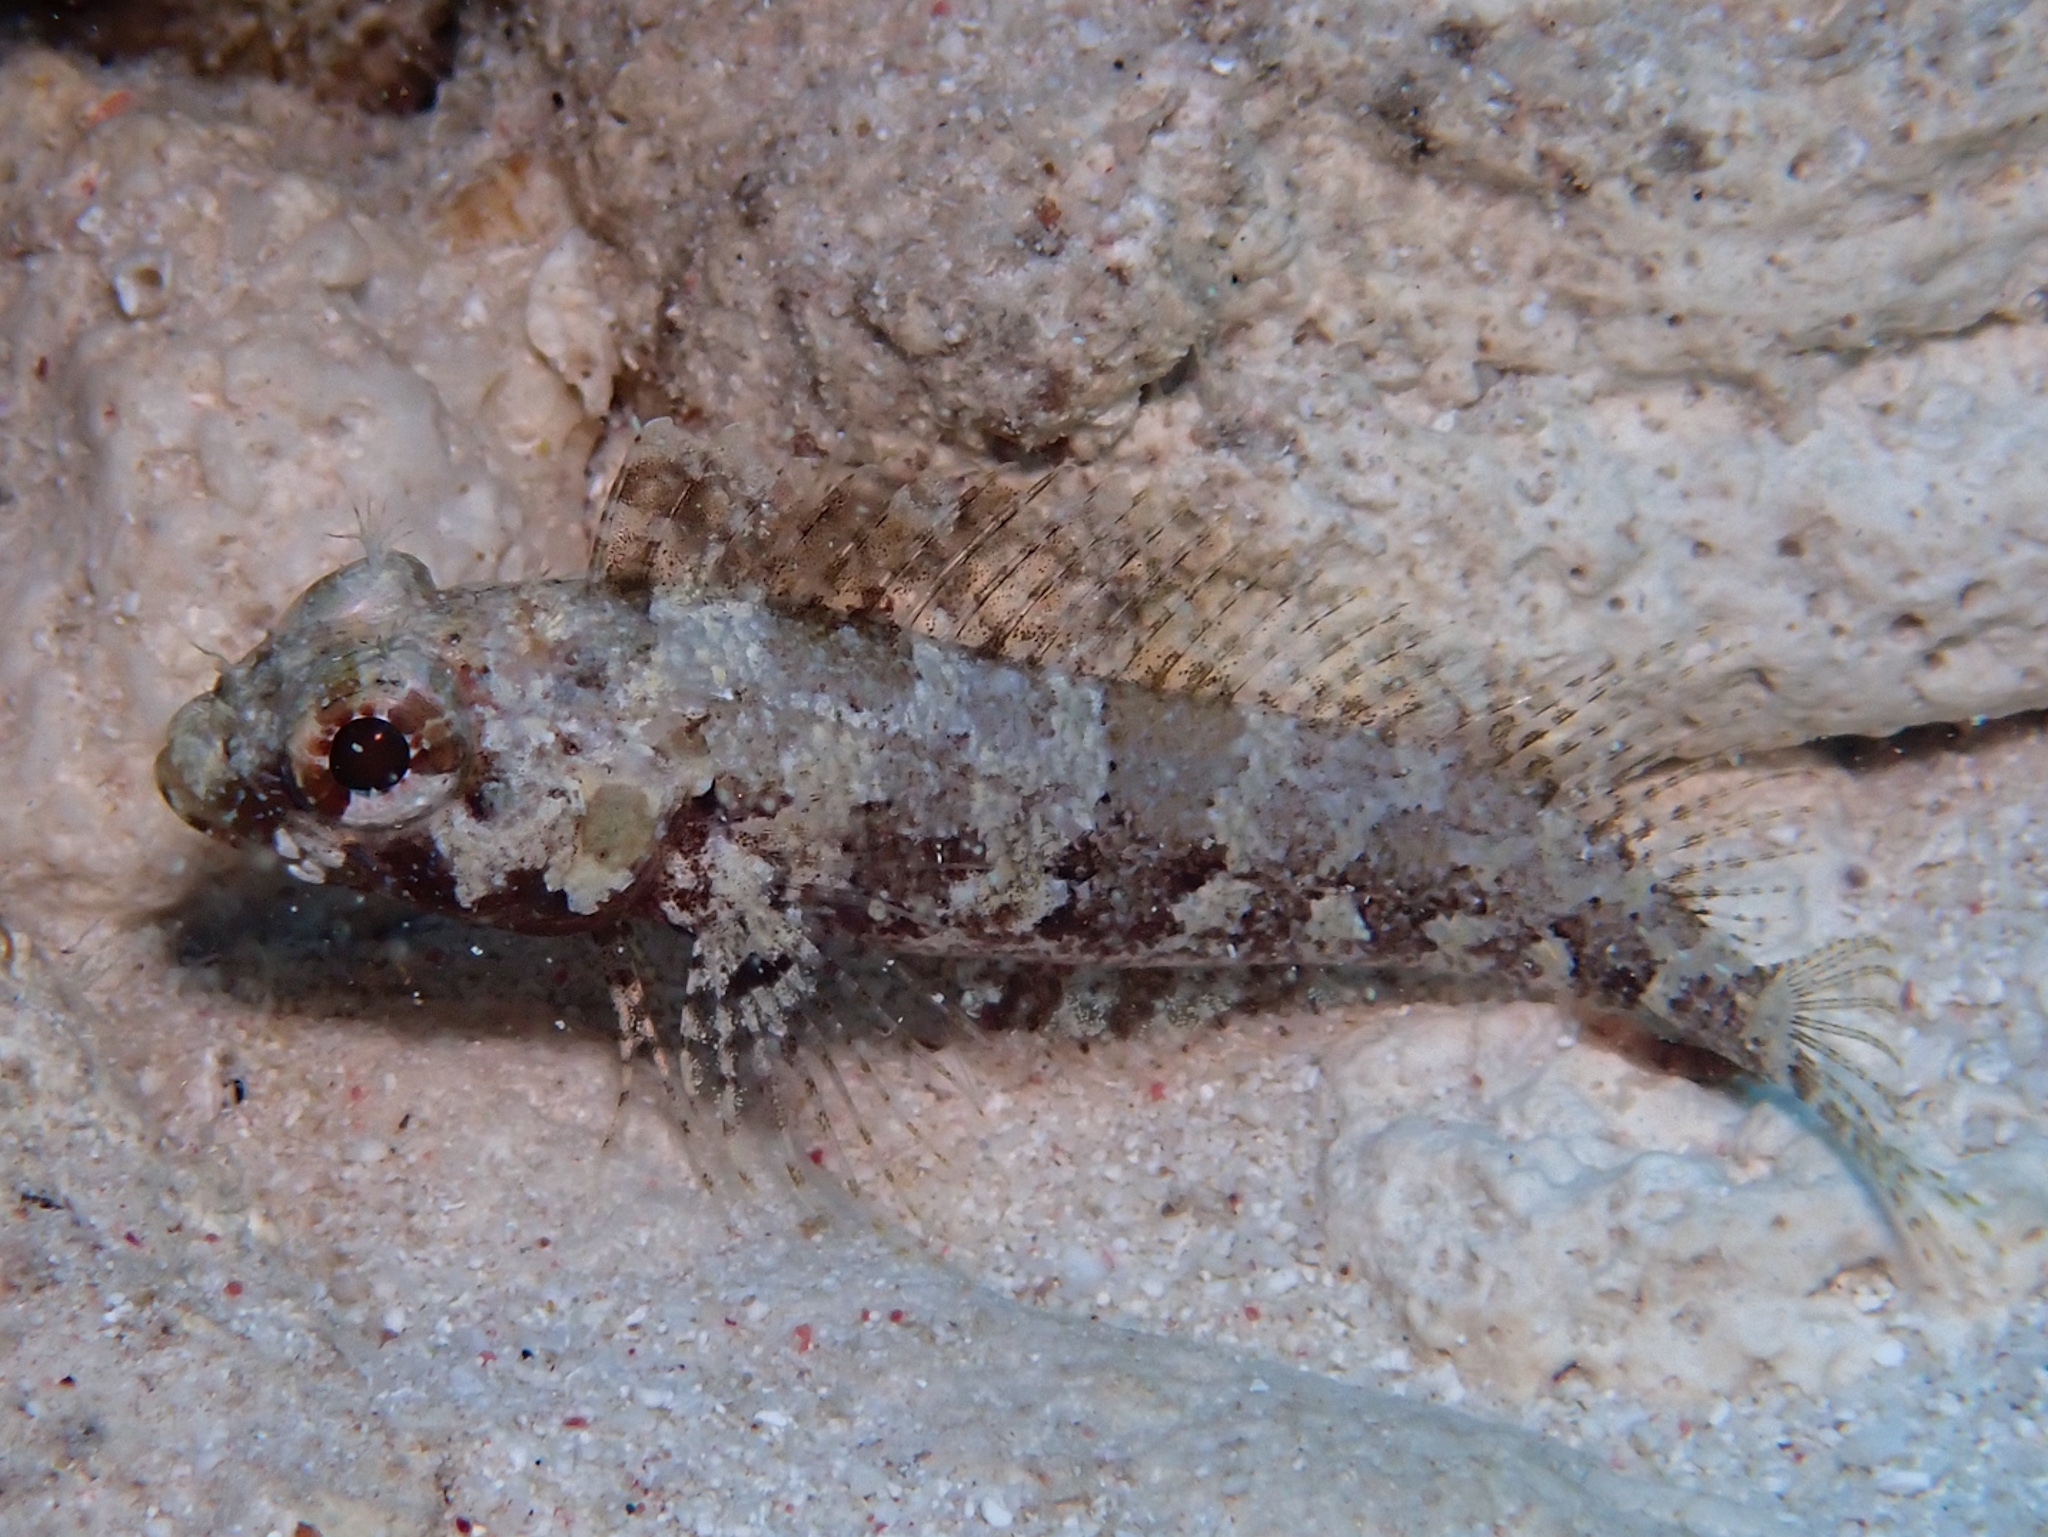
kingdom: Animalia
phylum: Chordata
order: Perciformes
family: Labrisomidae
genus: Gobioclinus
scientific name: Gobioclinus gobio
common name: Palehead blenny
